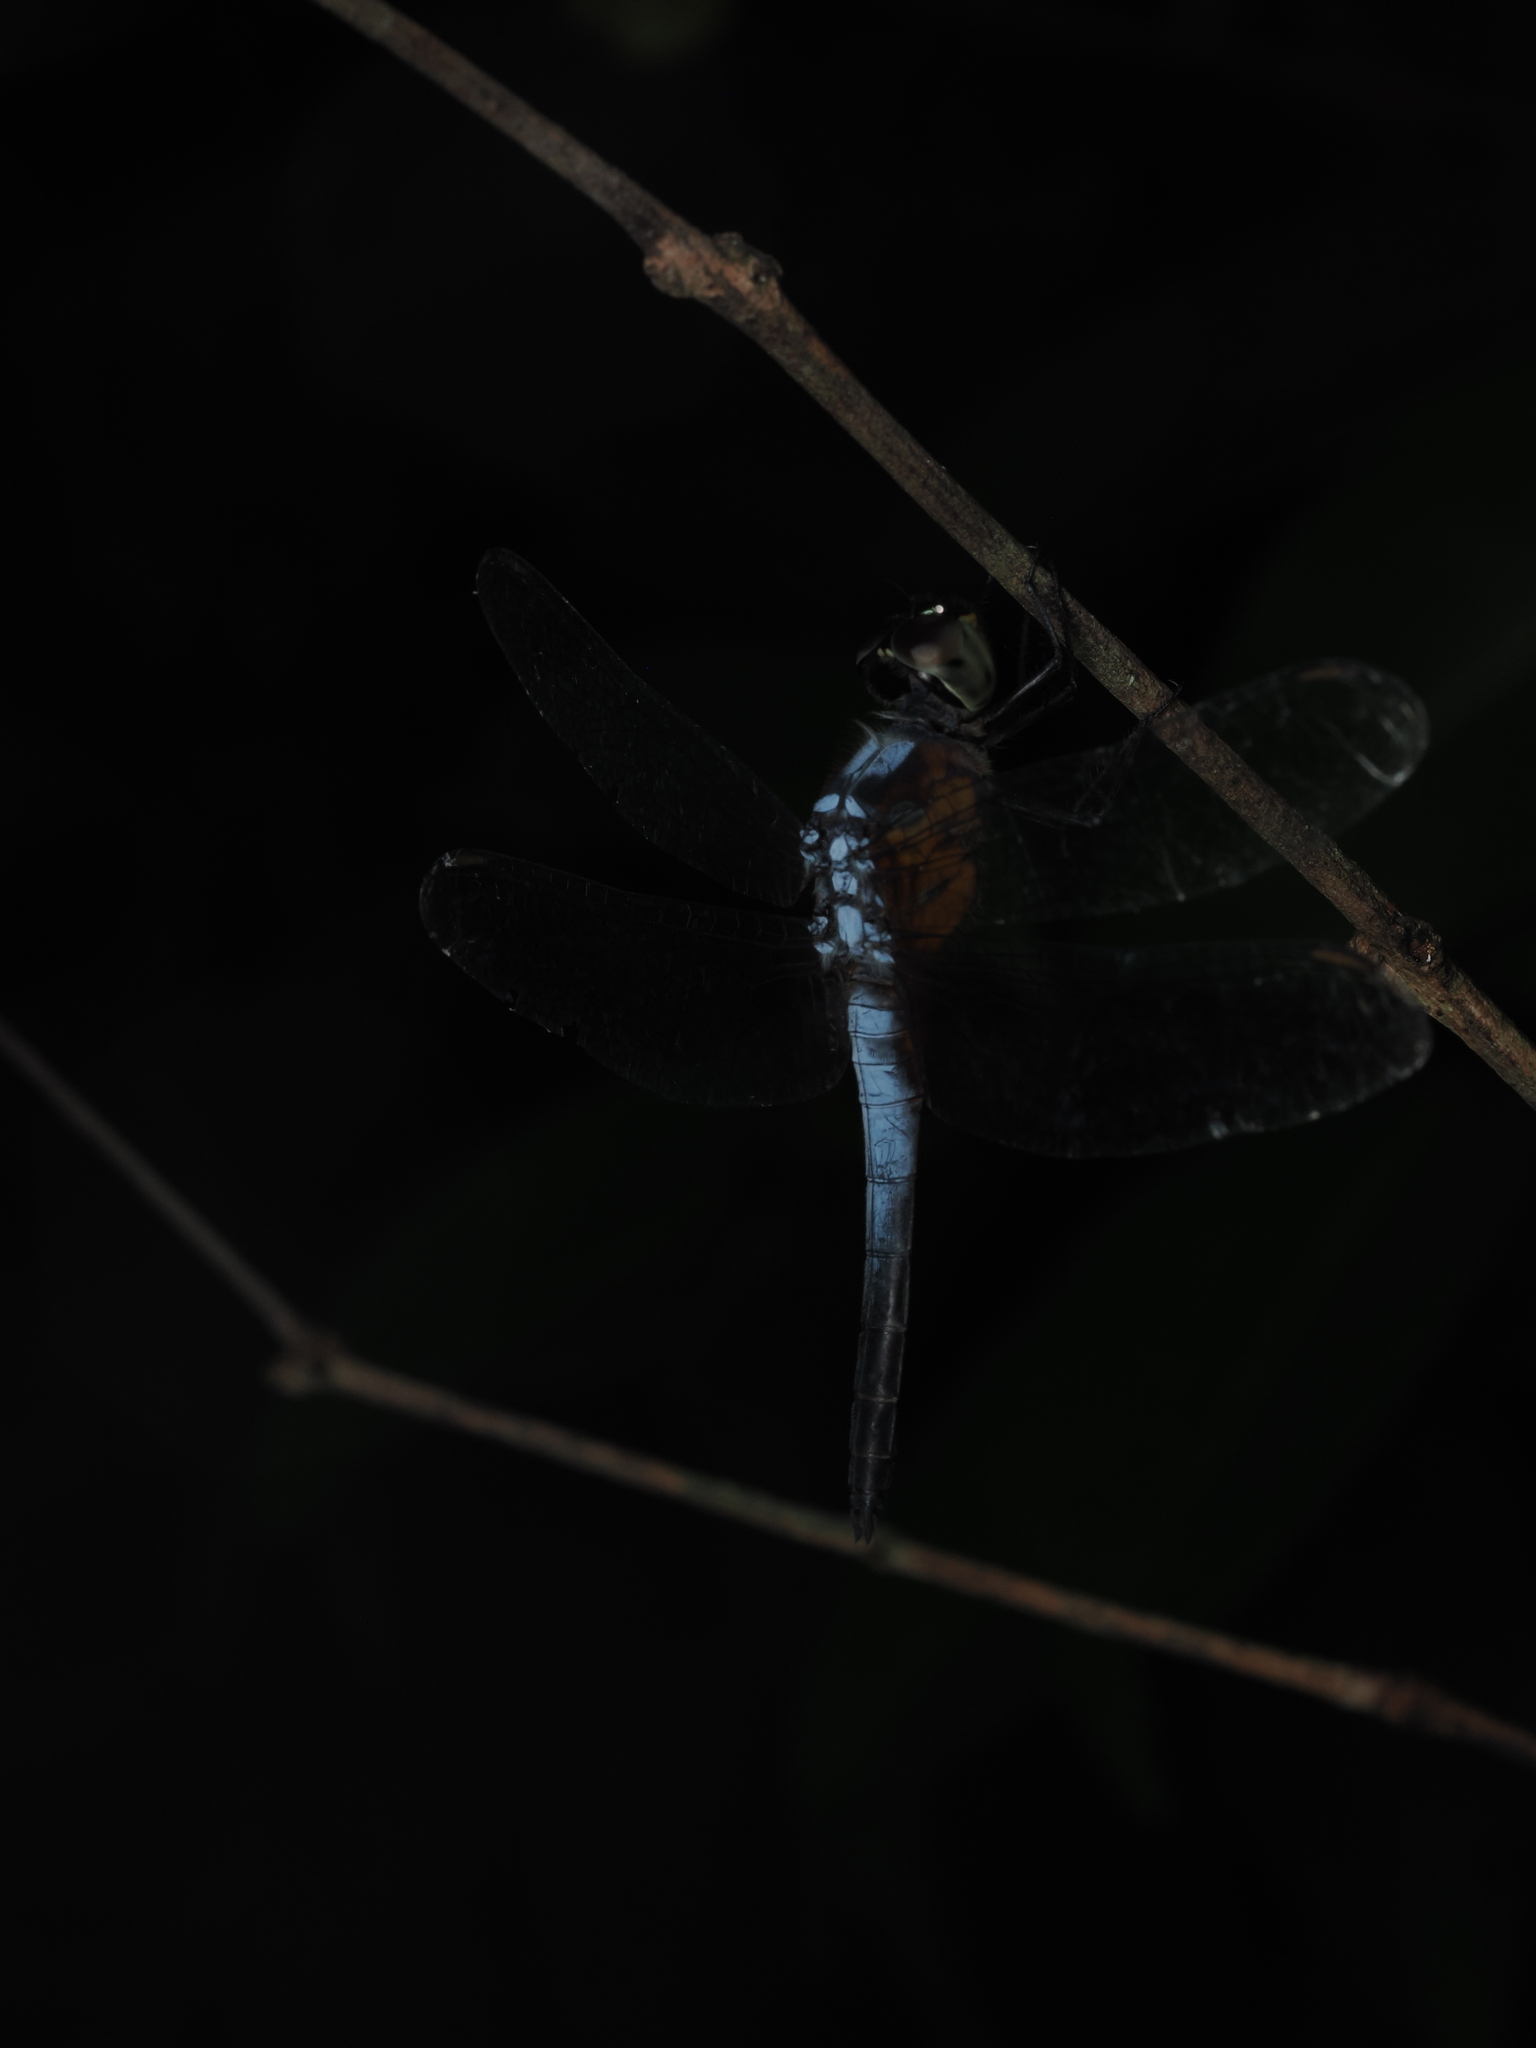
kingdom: Animalia
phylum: Arthropoda
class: Insecta
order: Odonata
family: Libellulidae
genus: Brachydiplax
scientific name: Brachydiplax chalybea
